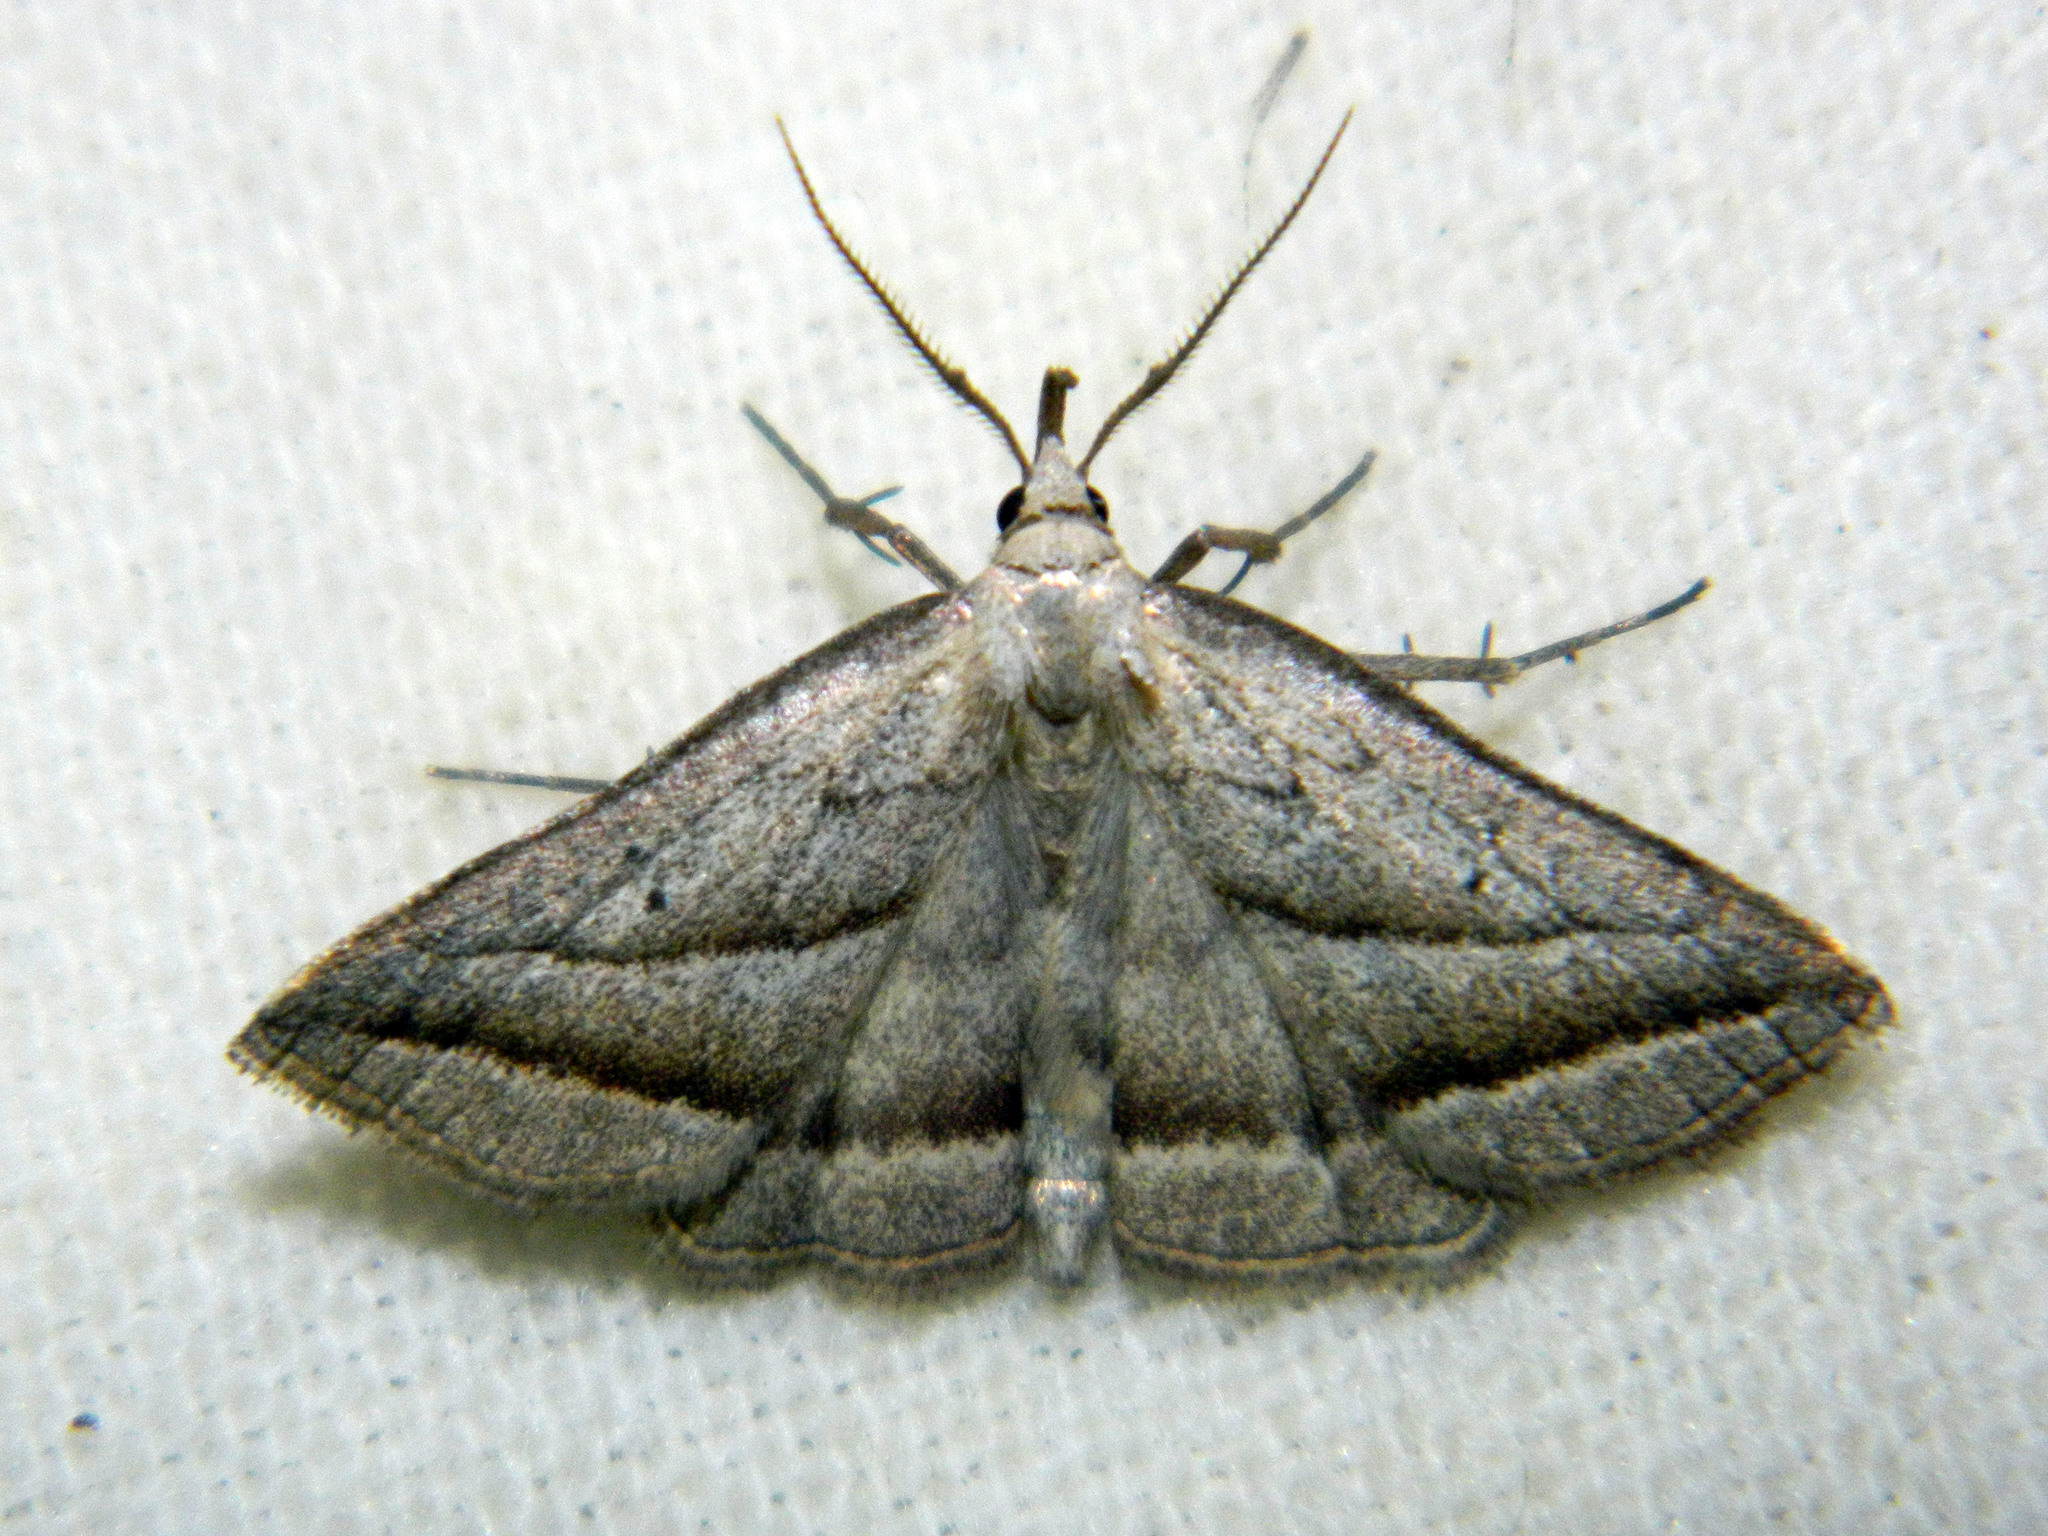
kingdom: Animalia
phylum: Arthropoda
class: Insecta
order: Lepidoptera
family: Erebidae
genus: Macrochilo
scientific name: Macrochilo absorptalis
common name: Slant-lined owlet
